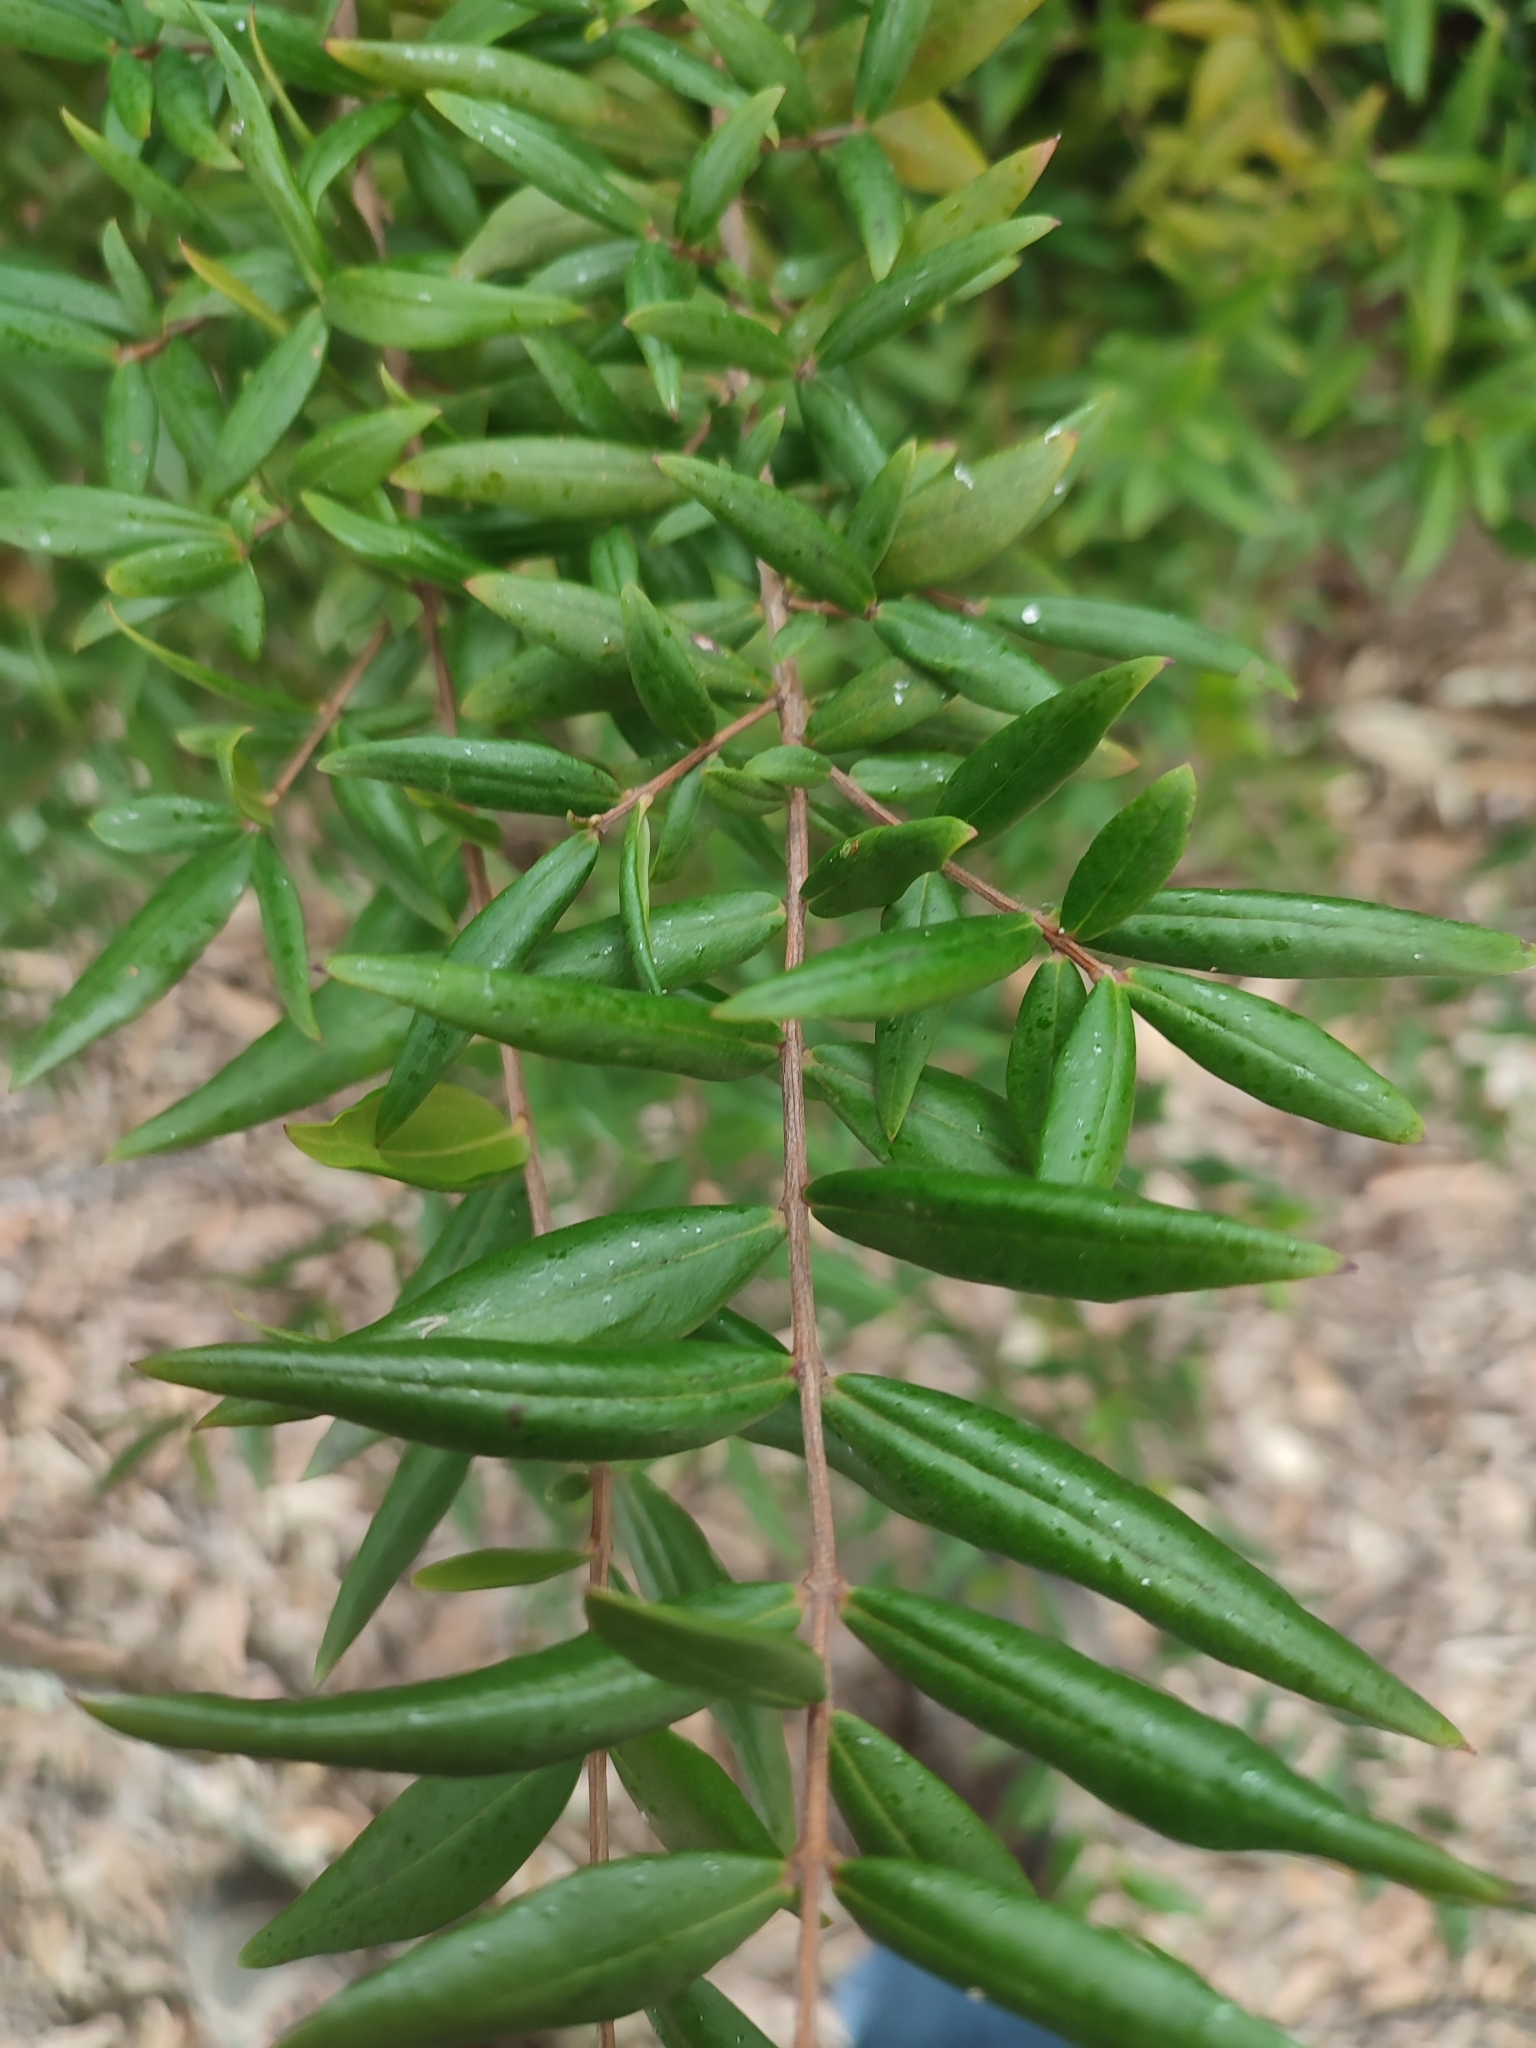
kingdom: Plantae
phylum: Tracheophyta
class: Magnoliopsida
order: Myrtales
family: Myrtaceae
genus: Myrtus
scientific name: Myrtus communis
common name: Myrtle
